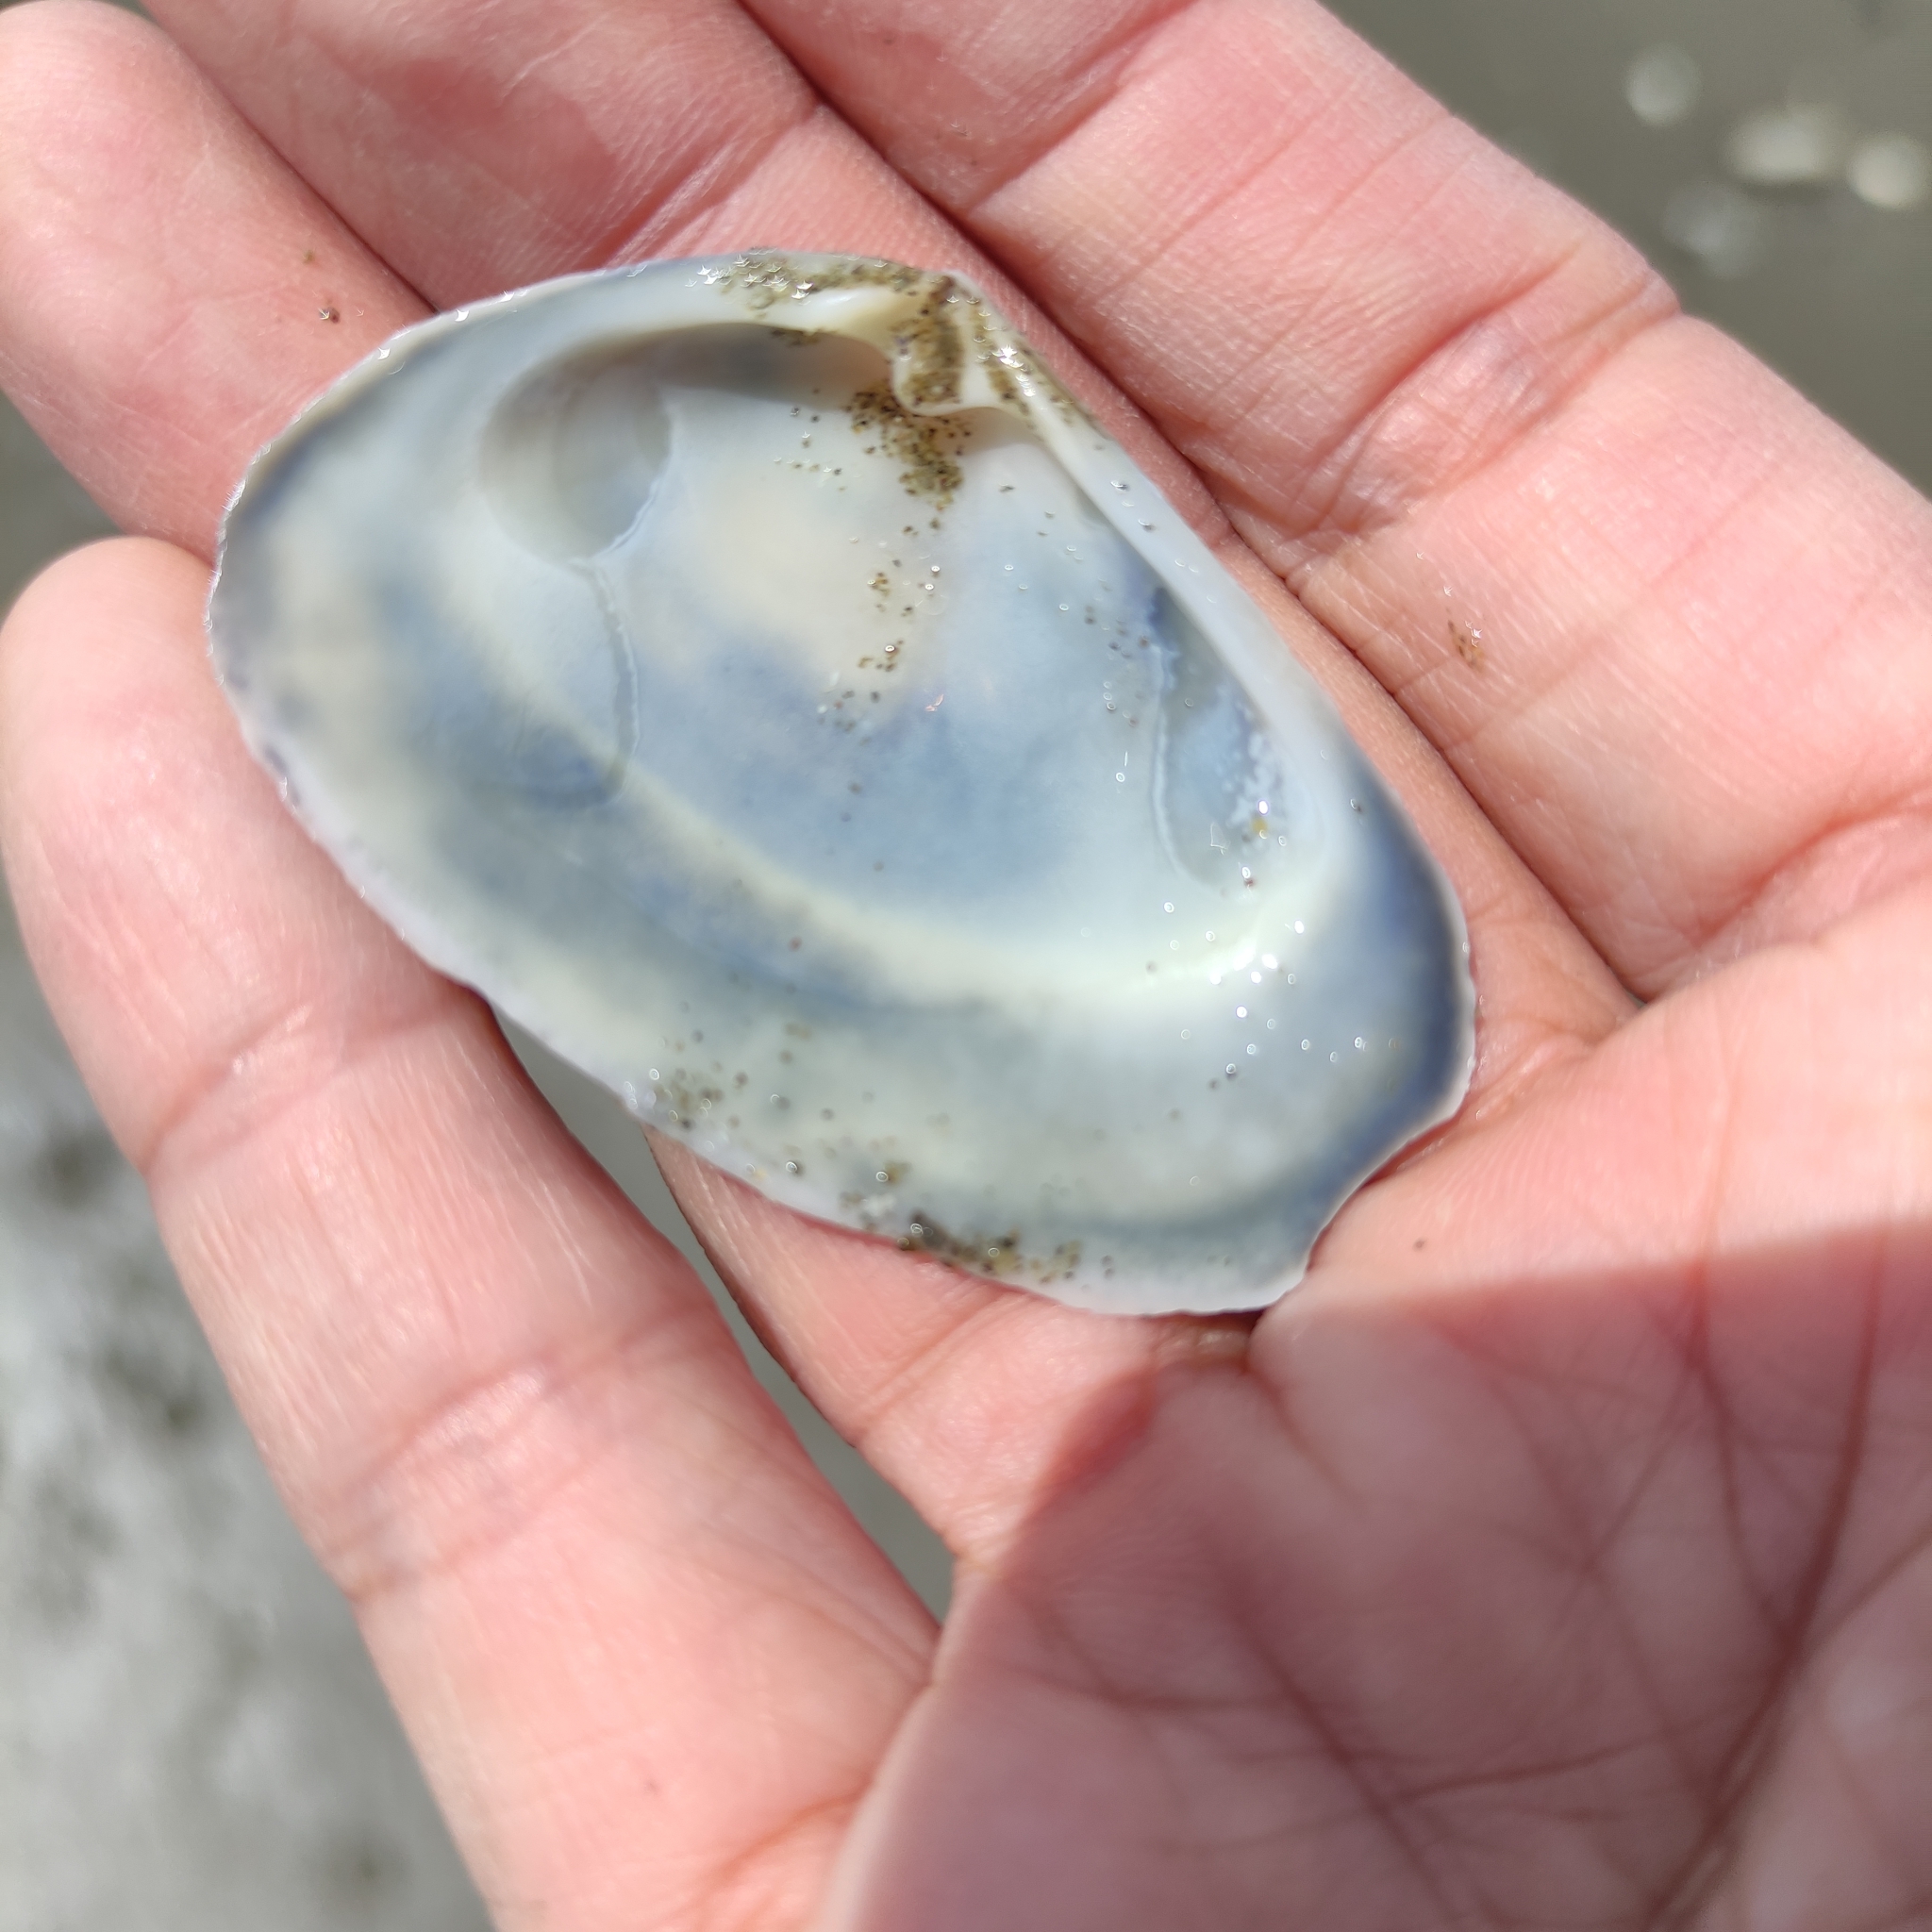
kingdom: Animalia
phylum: Mollusca
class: Bivalvia
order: Venerida
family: Mesodesmatidae
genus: Paphies
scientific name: Paphies donacina
